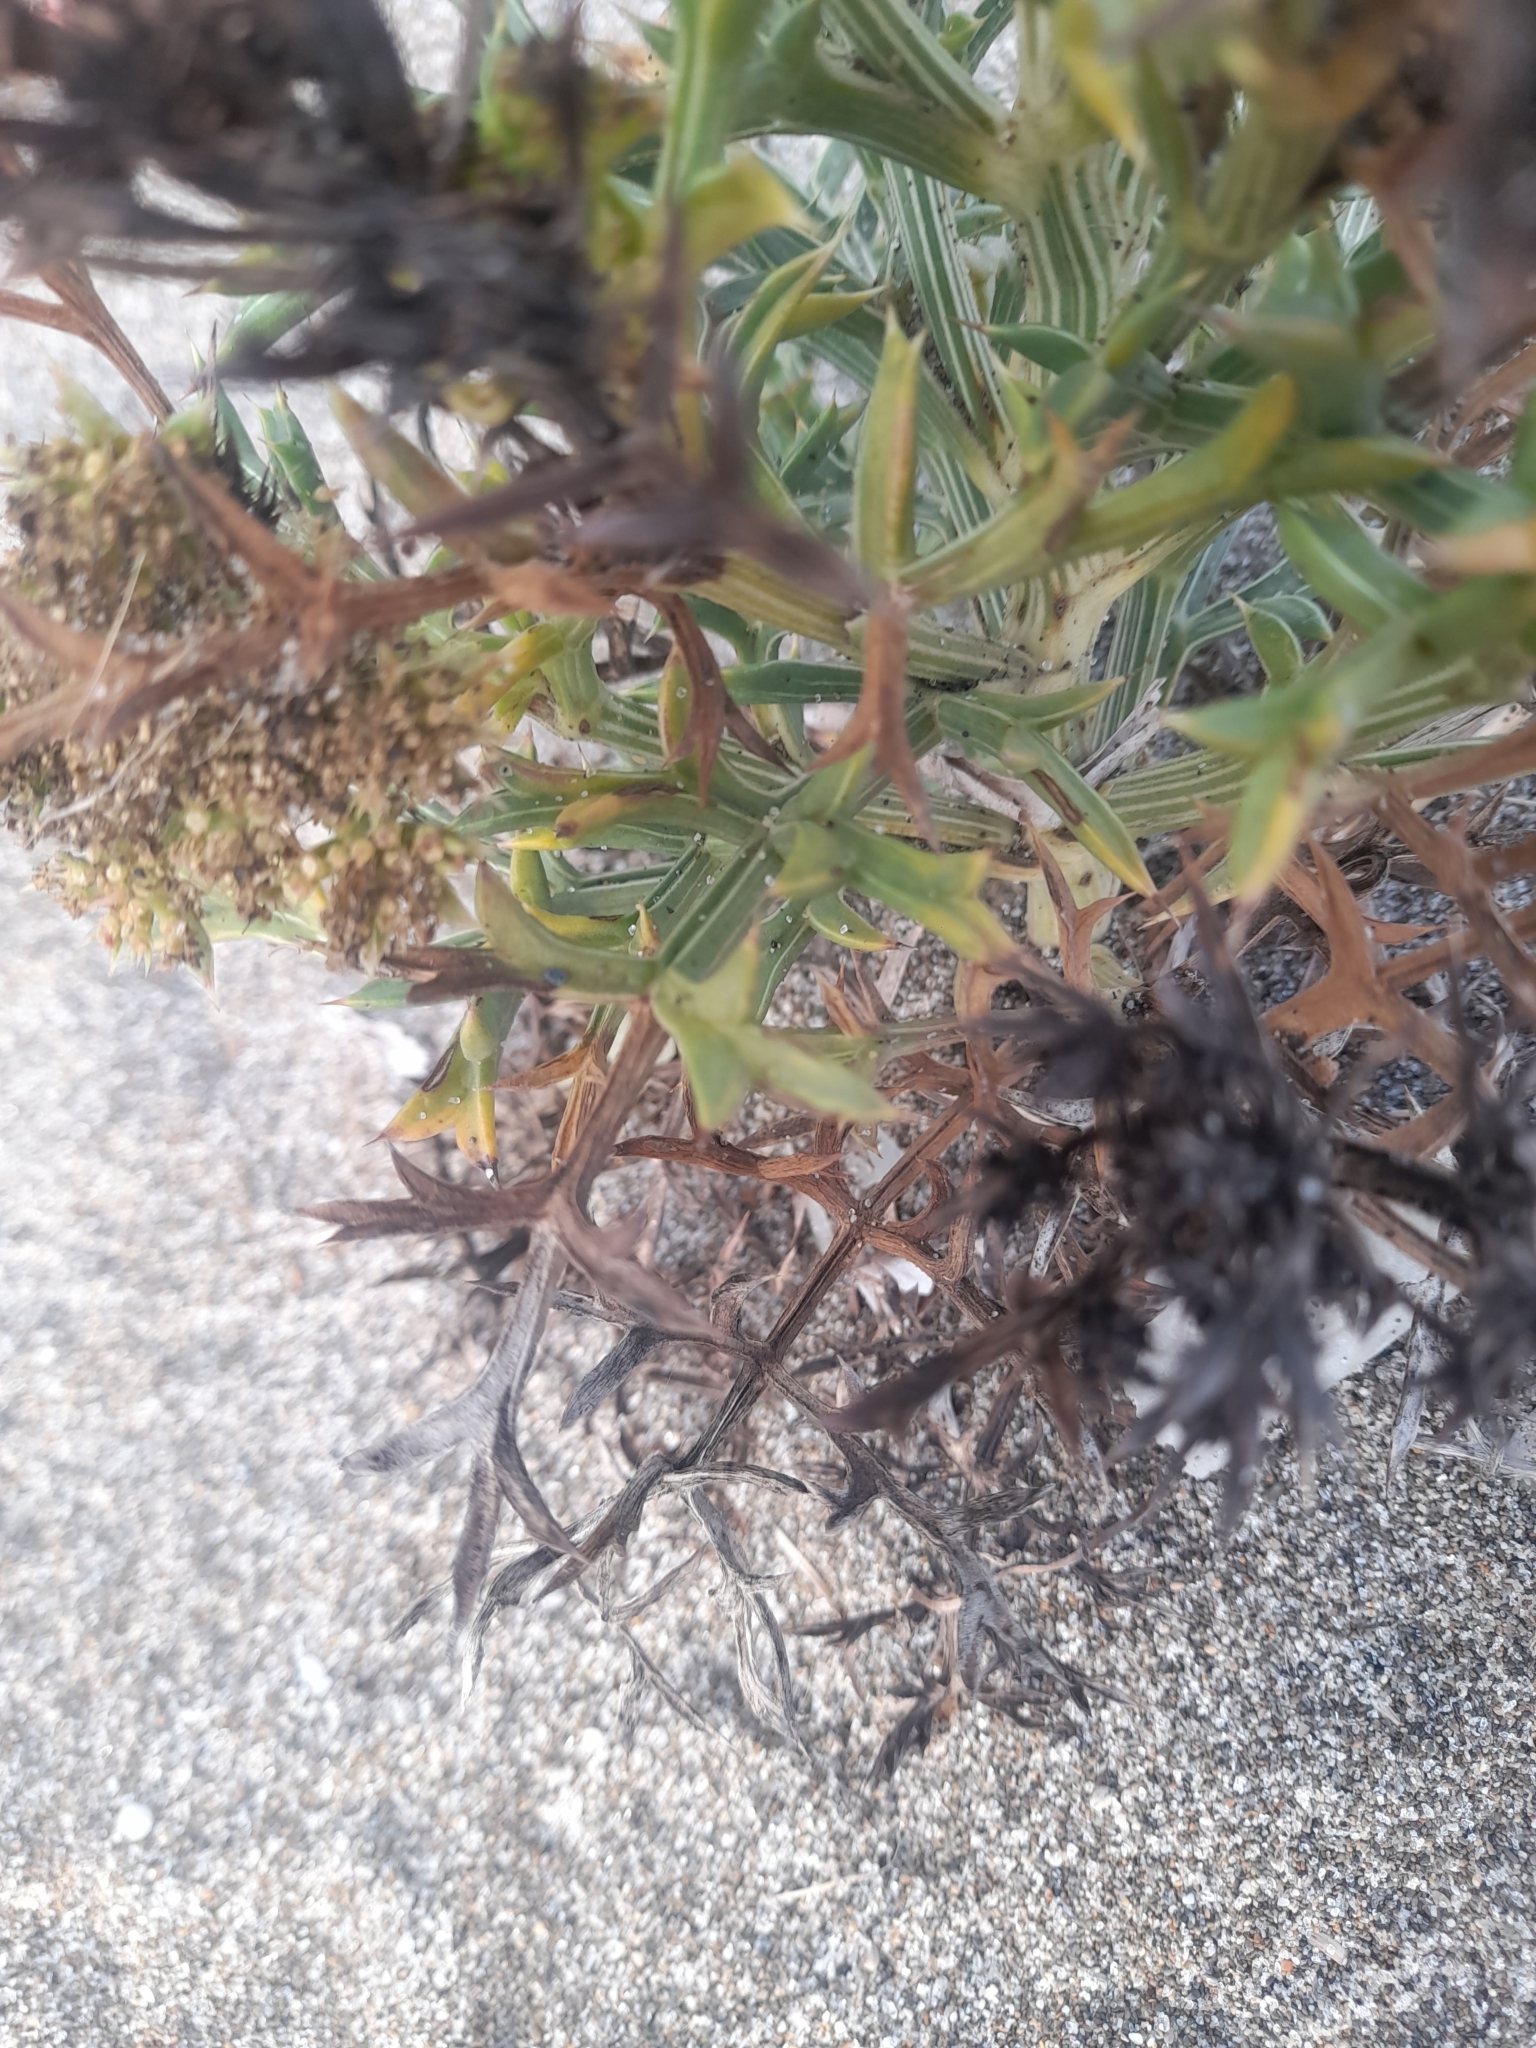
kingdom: Plantae
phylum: Tracheophyta
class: Magnoliopsida
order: Apiales
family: Apiaceae
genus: Echinophora
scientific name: Echinophora spinosa
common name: Prickly samphire
